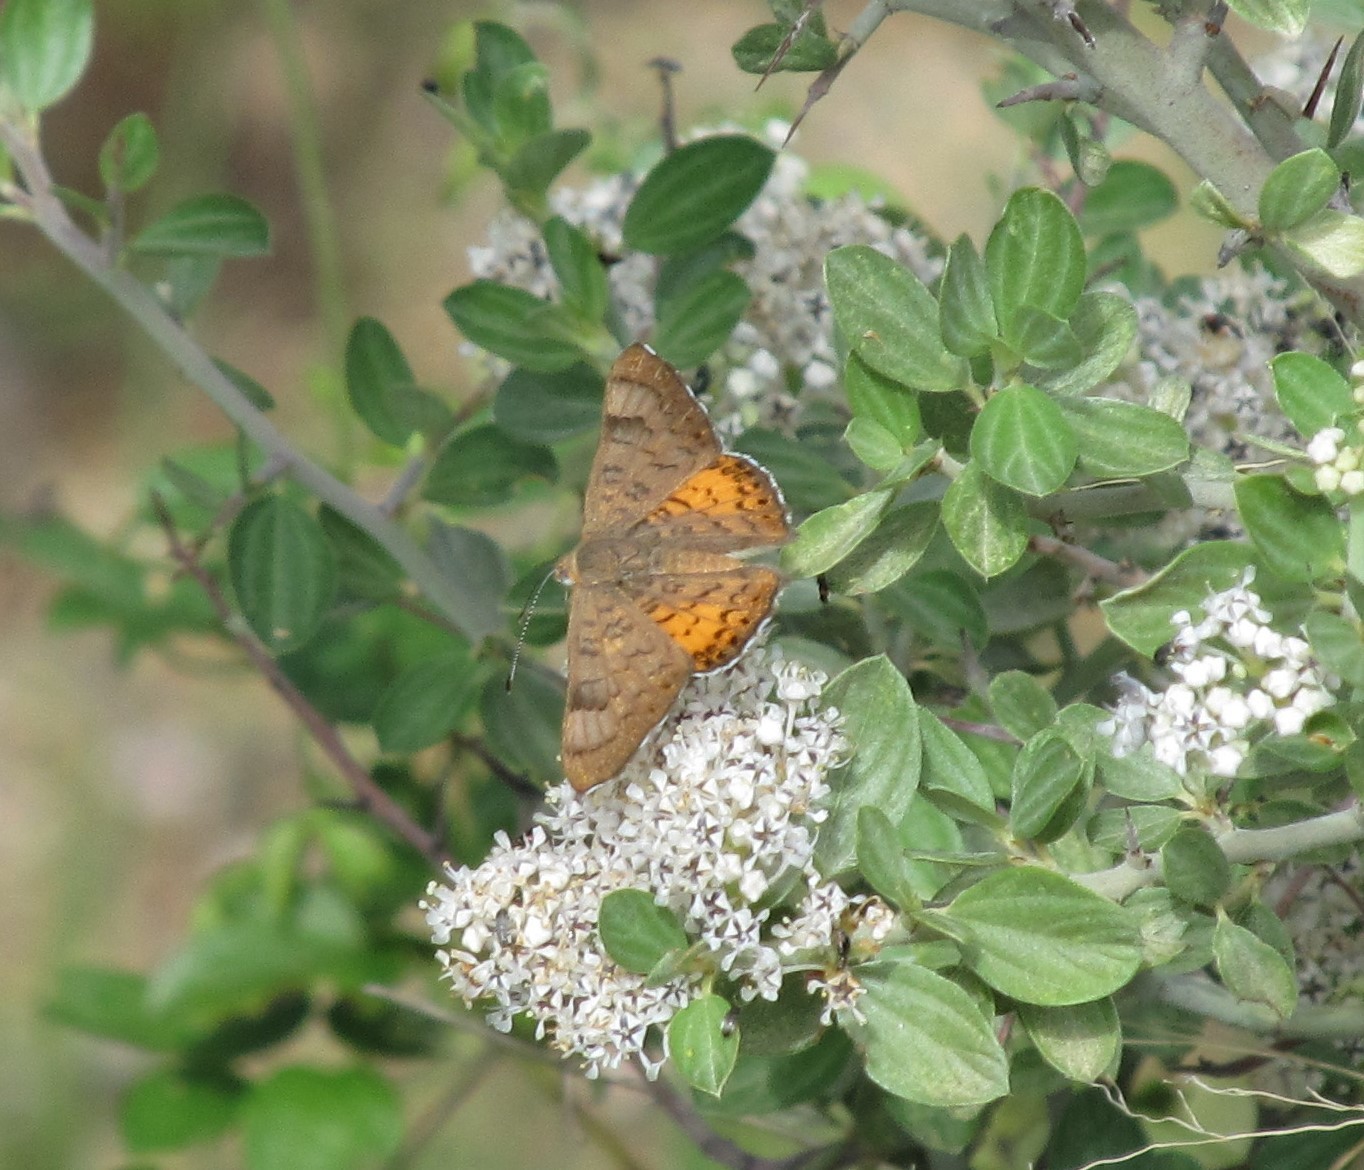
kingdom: Animalia
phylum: Arthropoda
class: Insecta
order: Lepidoptera
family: Riodinidae
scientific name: Riodinidae
